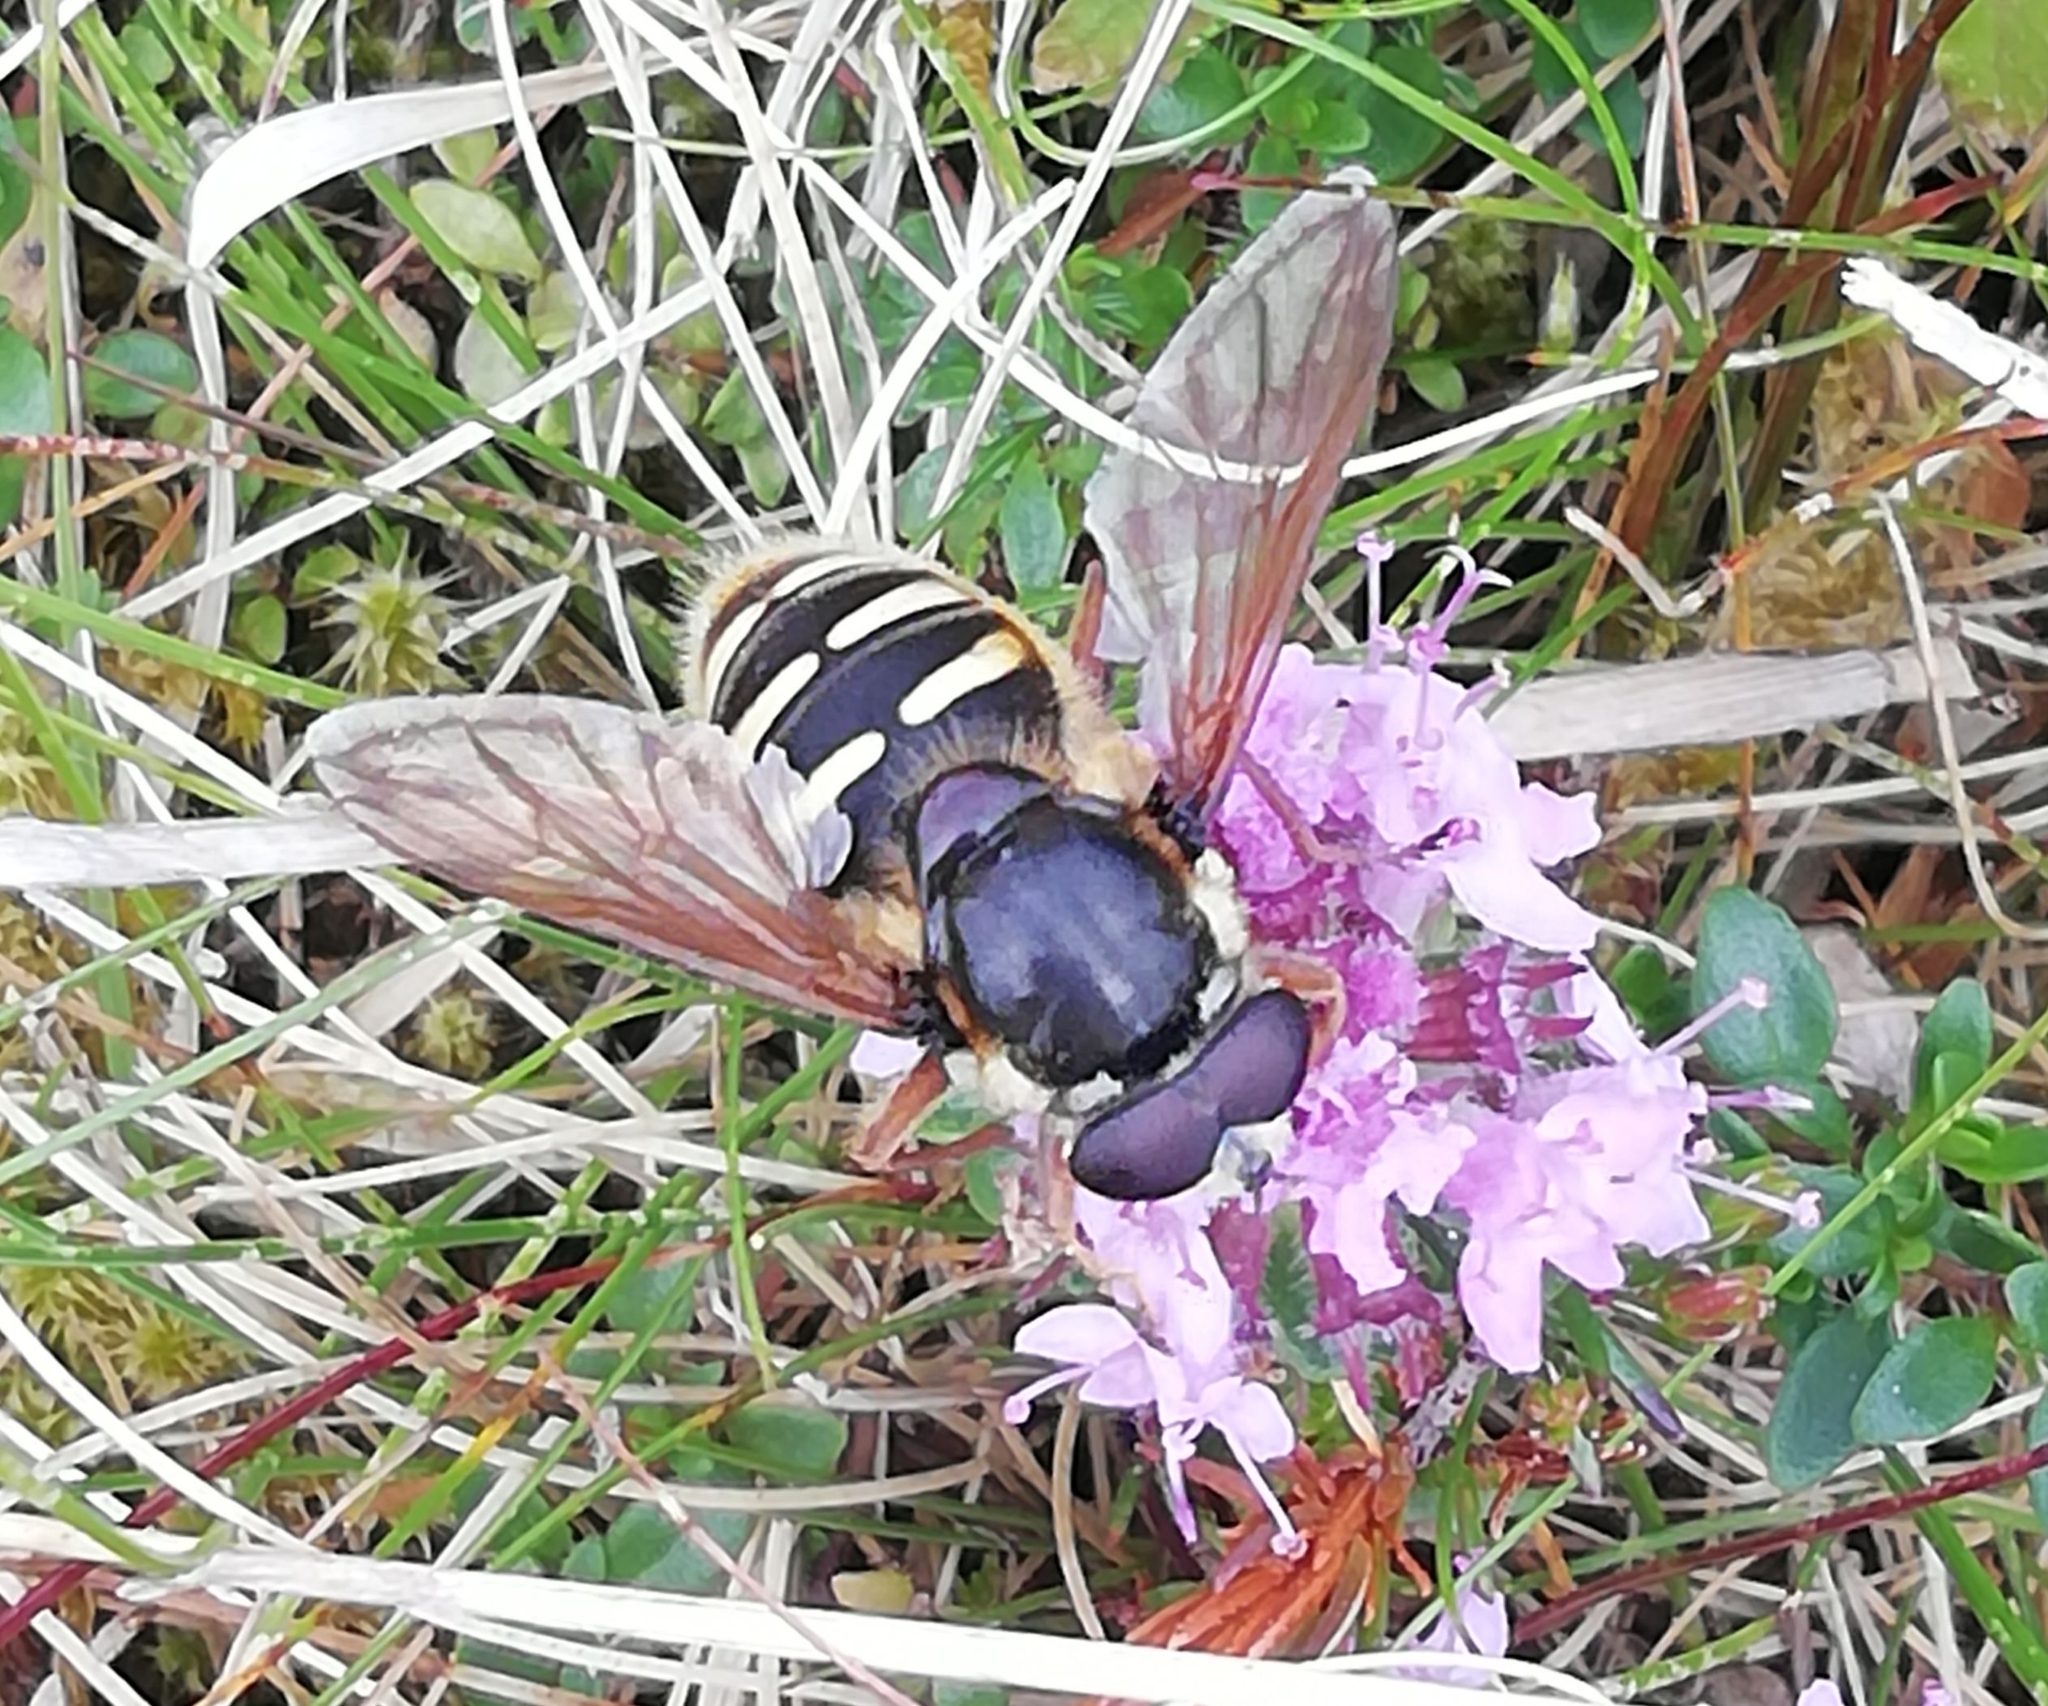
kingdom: Animalia
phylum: Arthropoda
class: Insecta
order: Diptera
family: Syrphidae
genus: Sericomyia
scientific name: Sericomyia silentis
